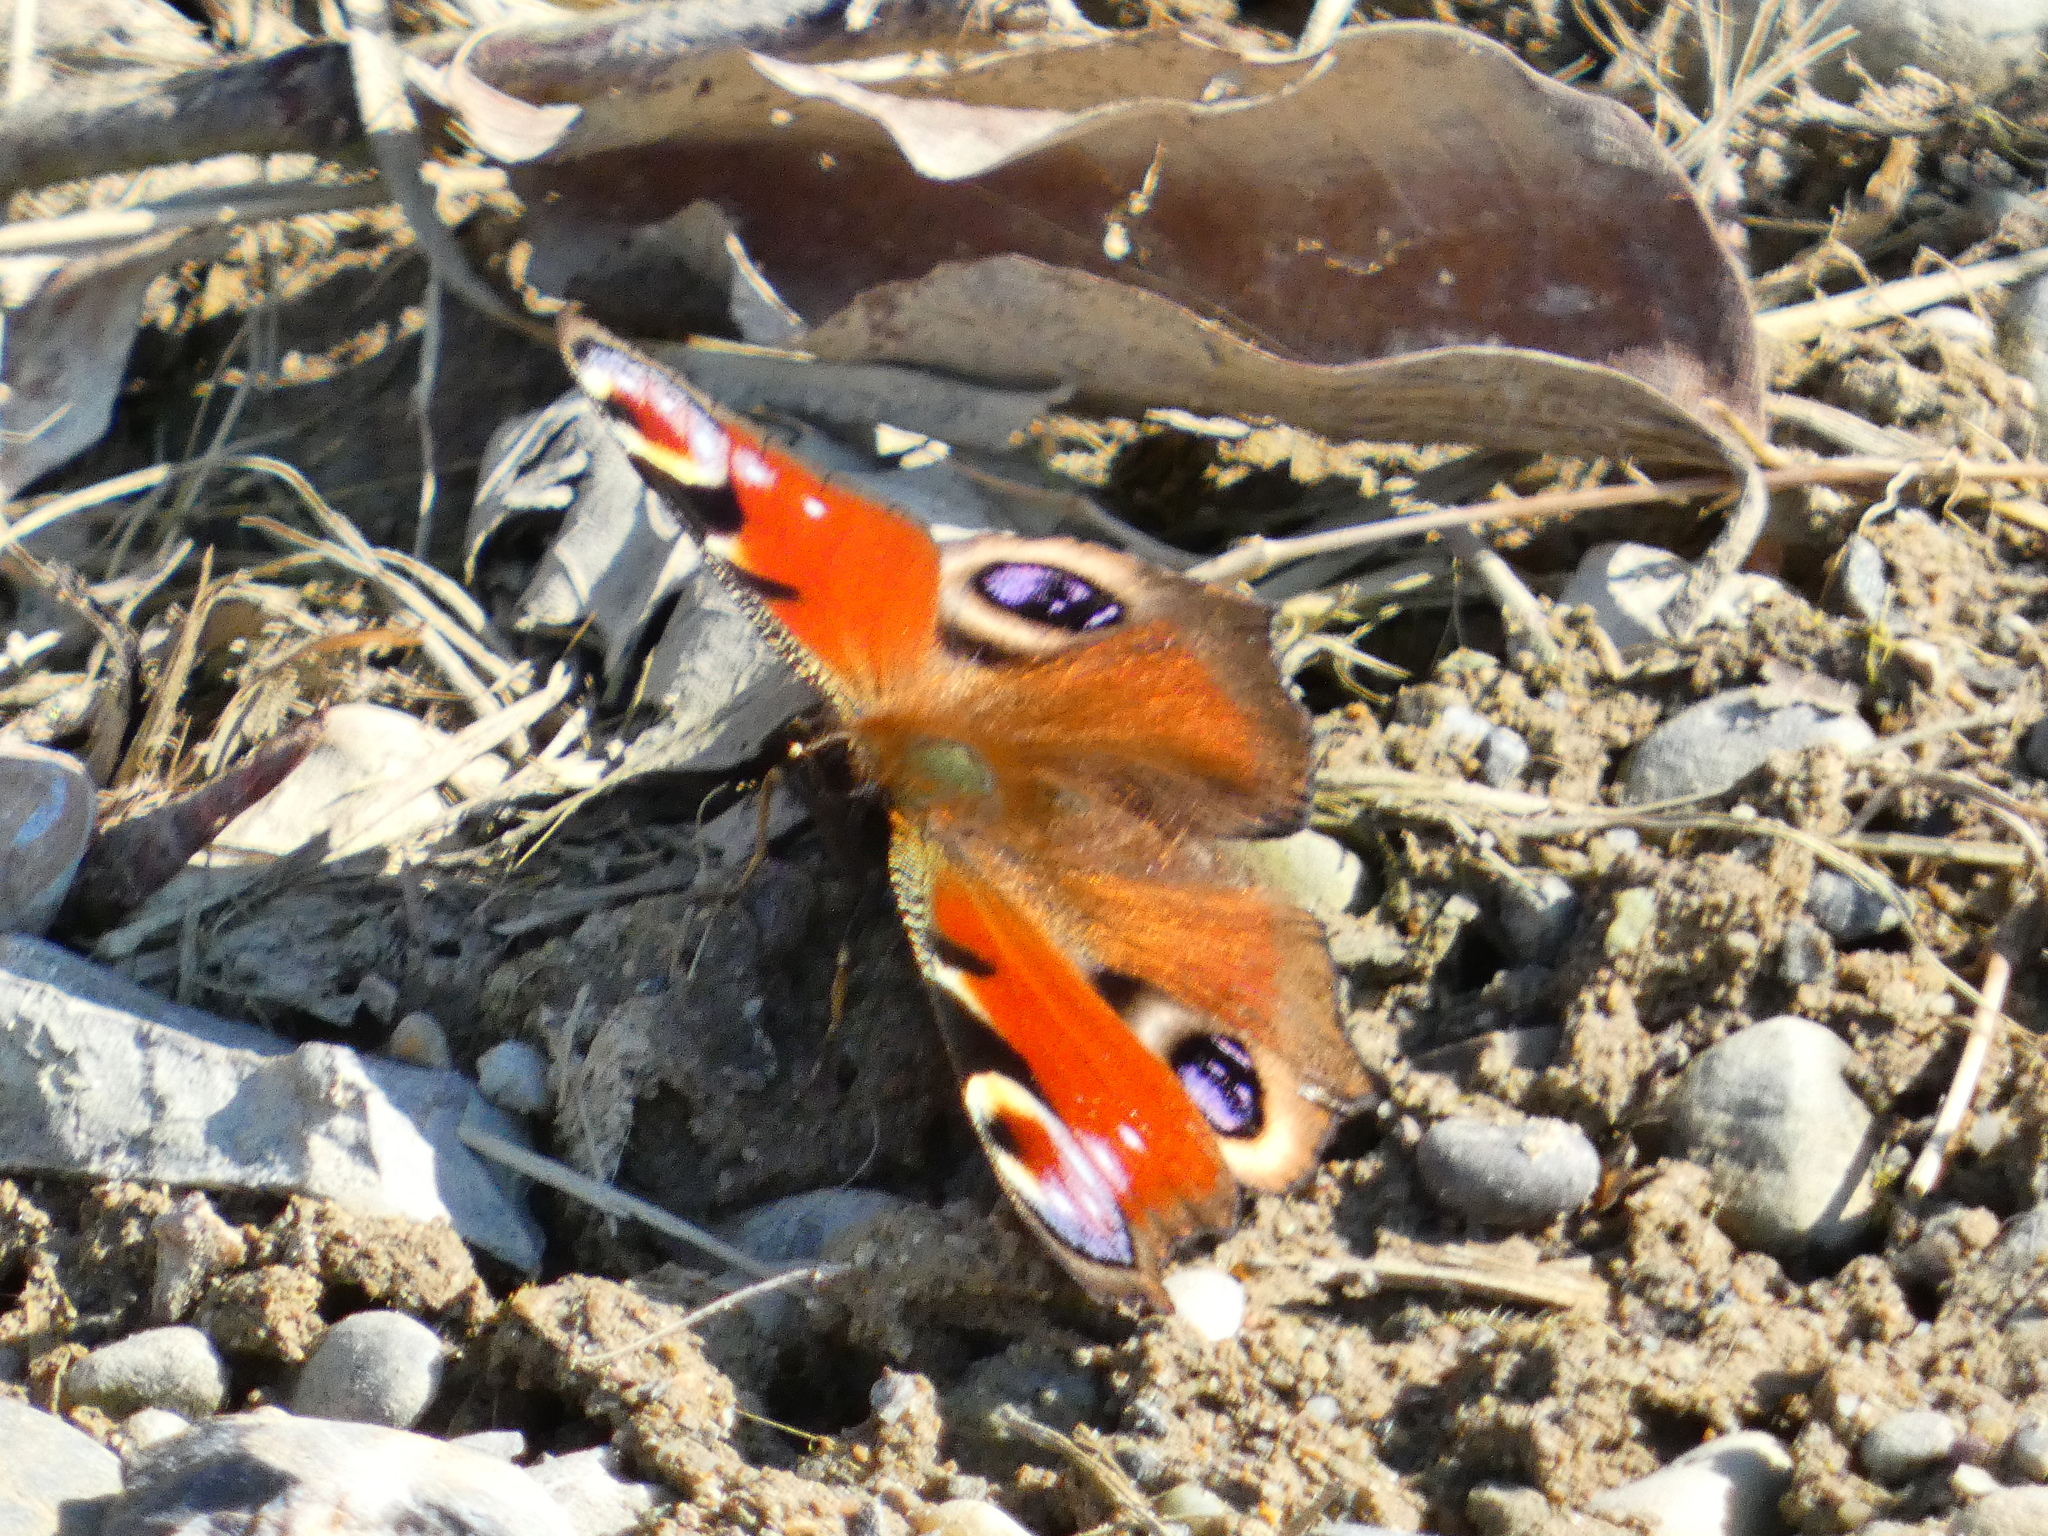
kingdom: Animalia
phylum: Arthropoda
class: Insecta
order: Lepidoptera
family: Nymphalidae
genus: Aglais
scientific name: Aglais io
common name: Peacock
